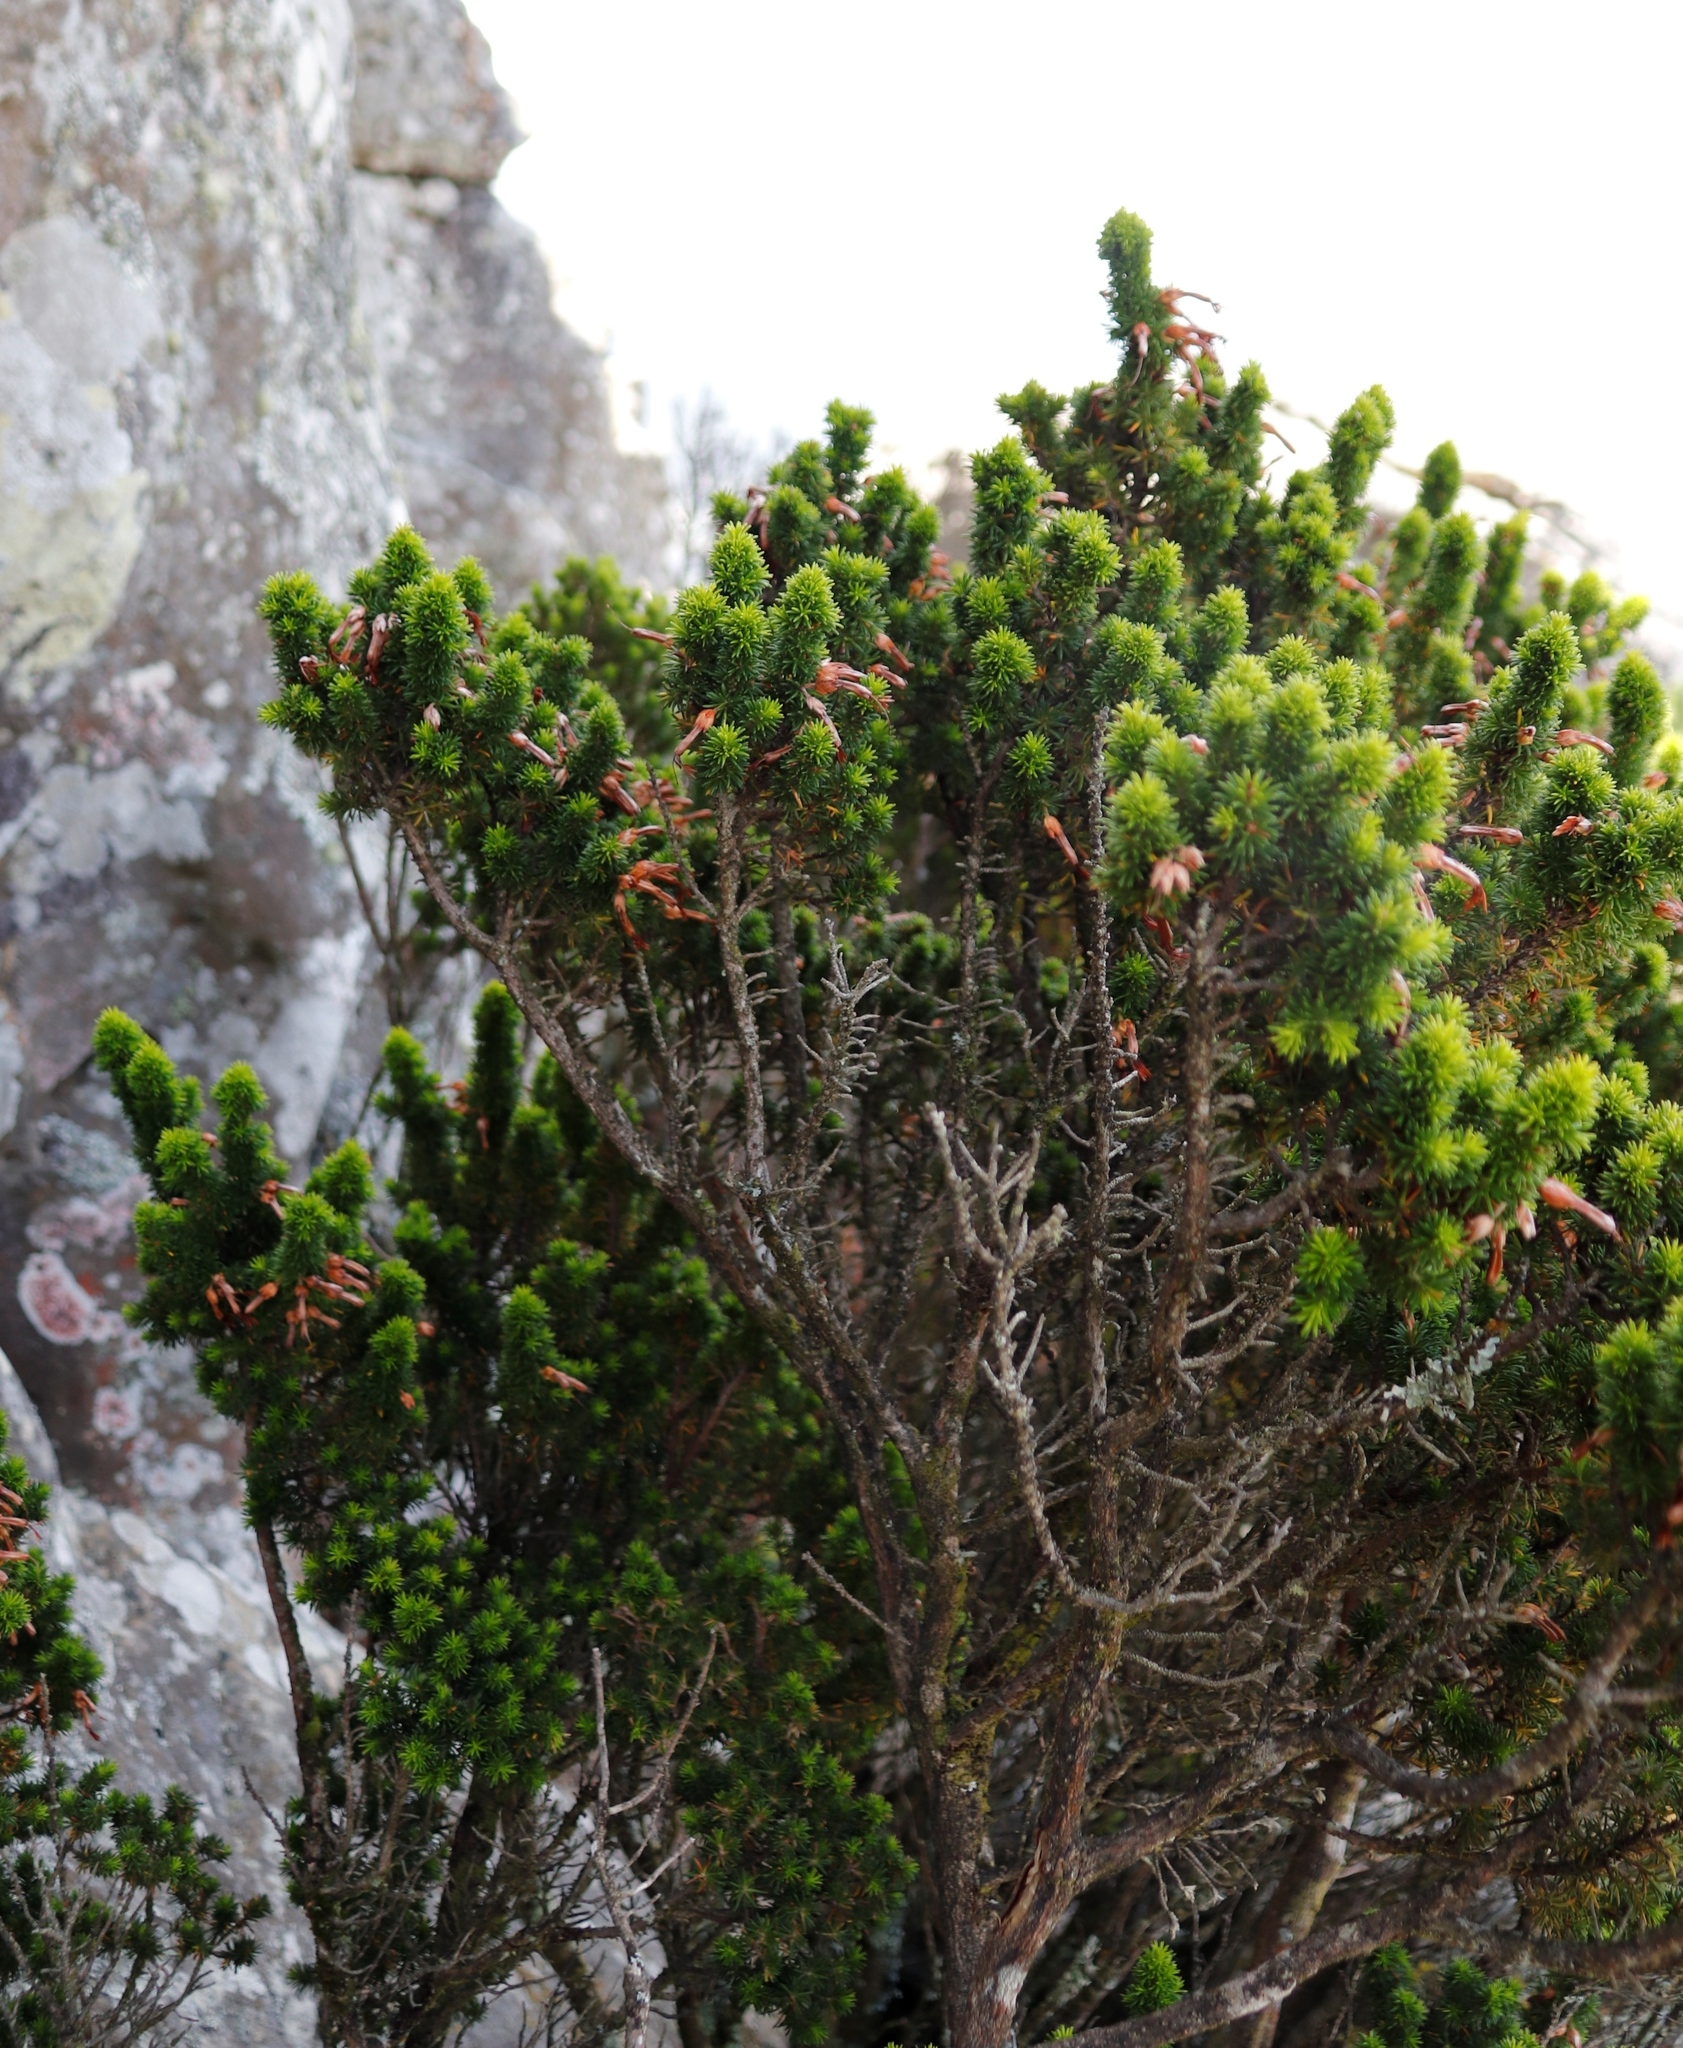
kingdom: Plantae
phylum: Tracheophyta
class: Magnoliopsida
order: Ericales
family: Ericaceae
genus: Erica
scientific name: Erica coccinea
